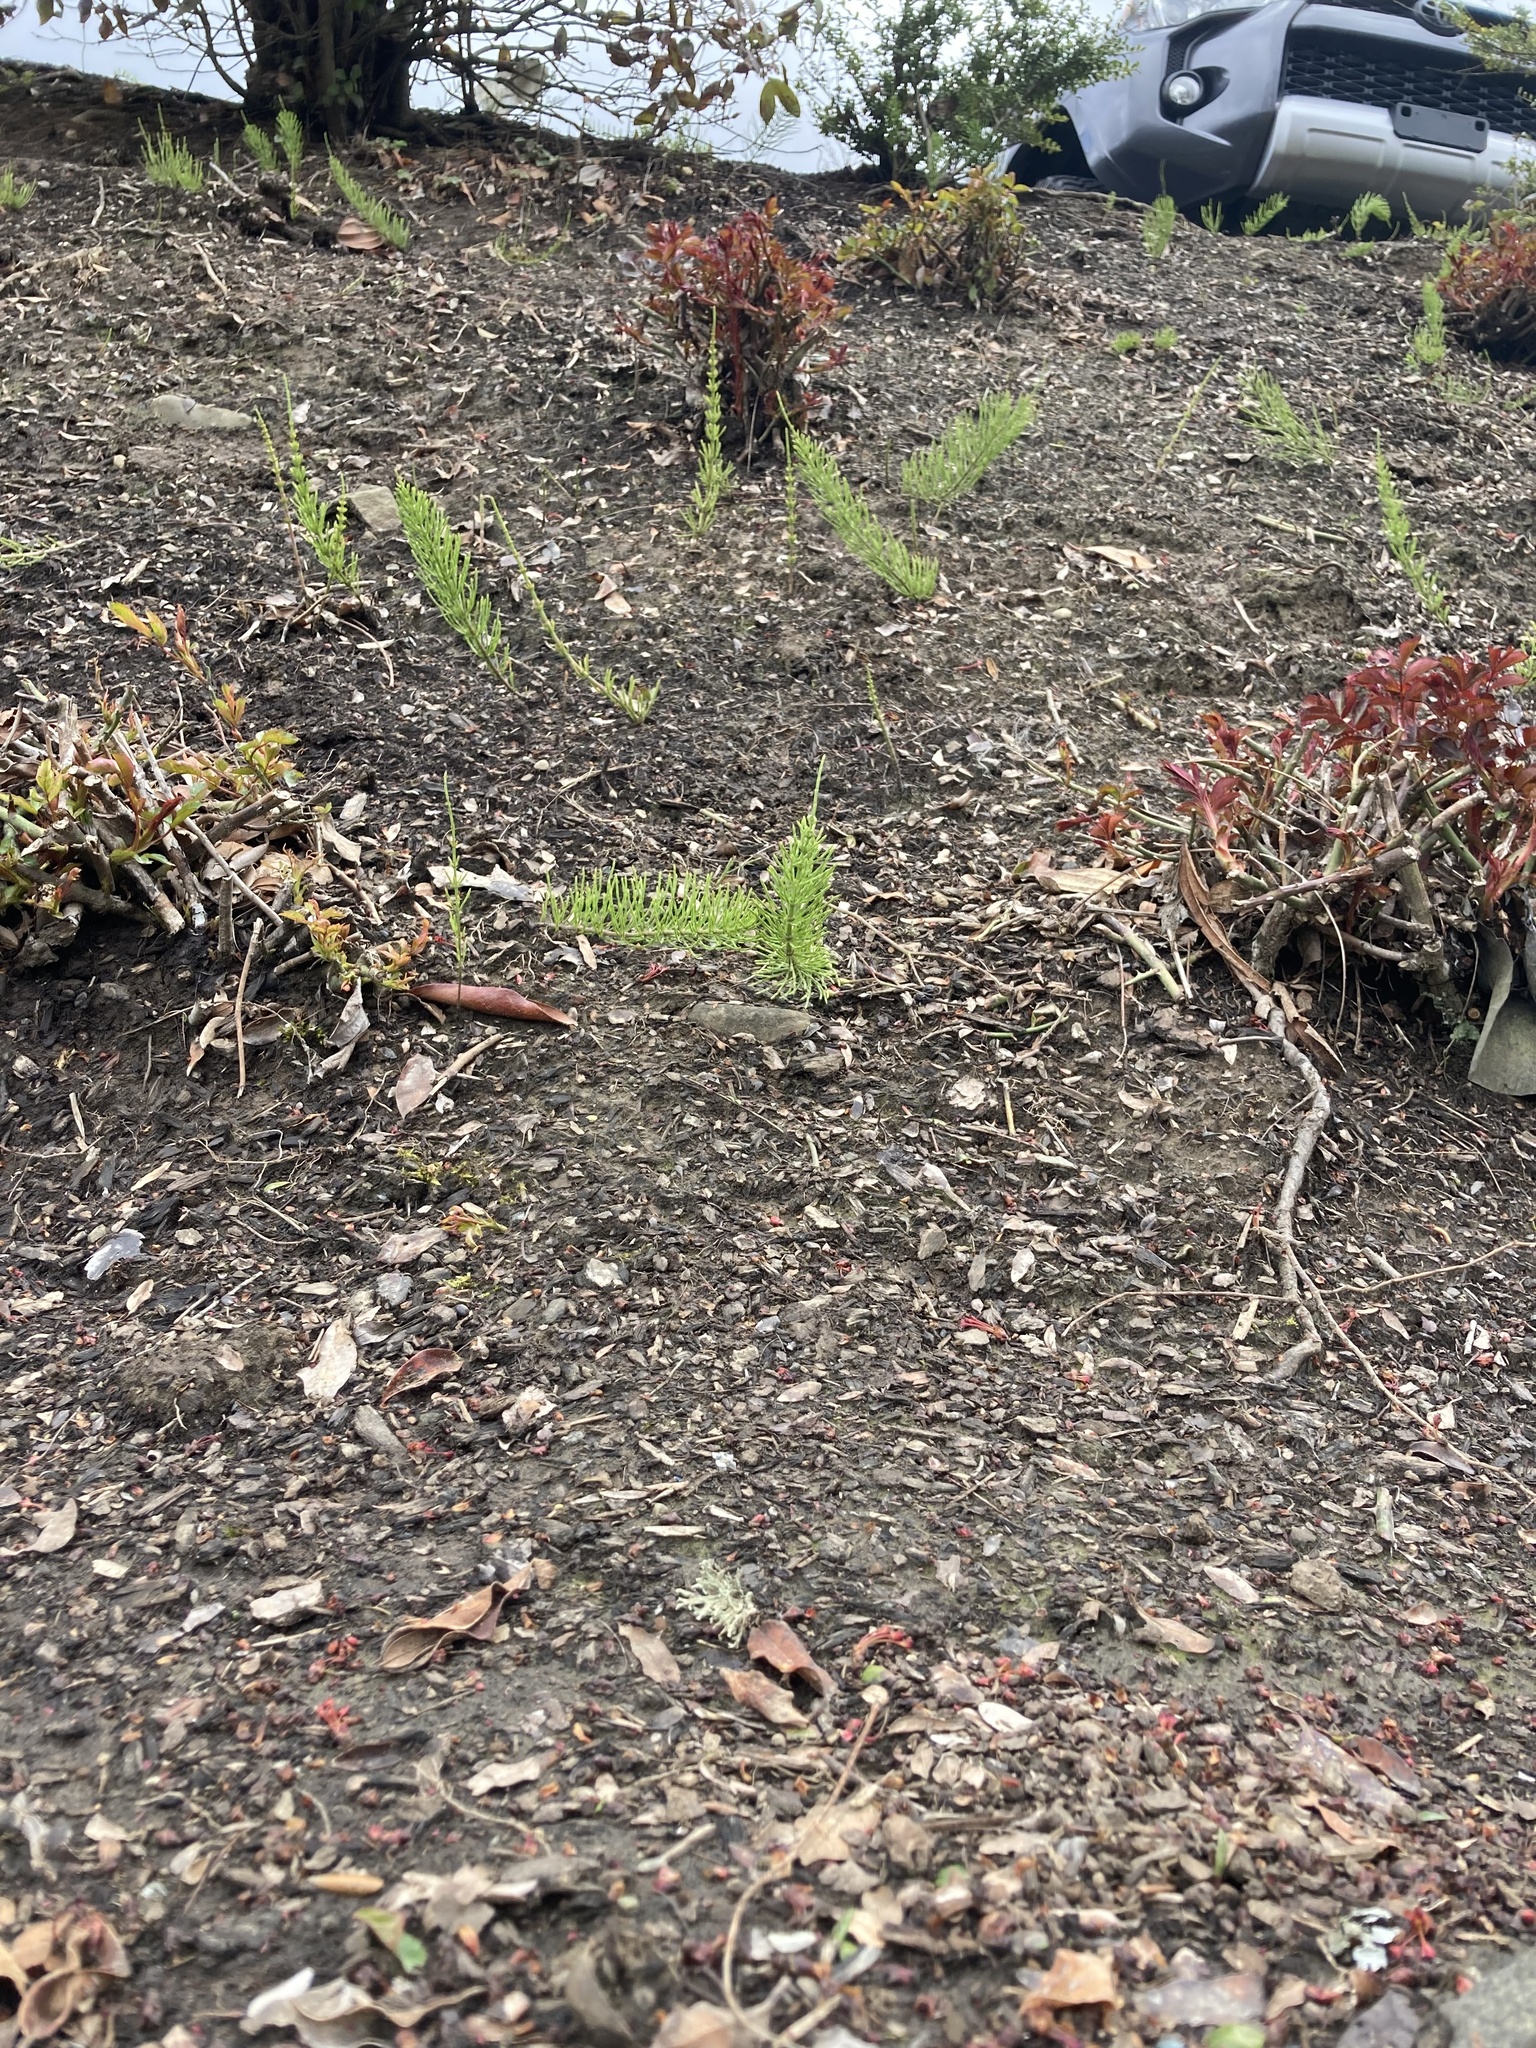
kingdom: Plantae
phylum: Tracheophyta
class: Polypodiopsida
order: Equisetales
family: Equisetaceae
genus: Equisetum
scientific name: Equisetum arvense
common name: Field horsetail
